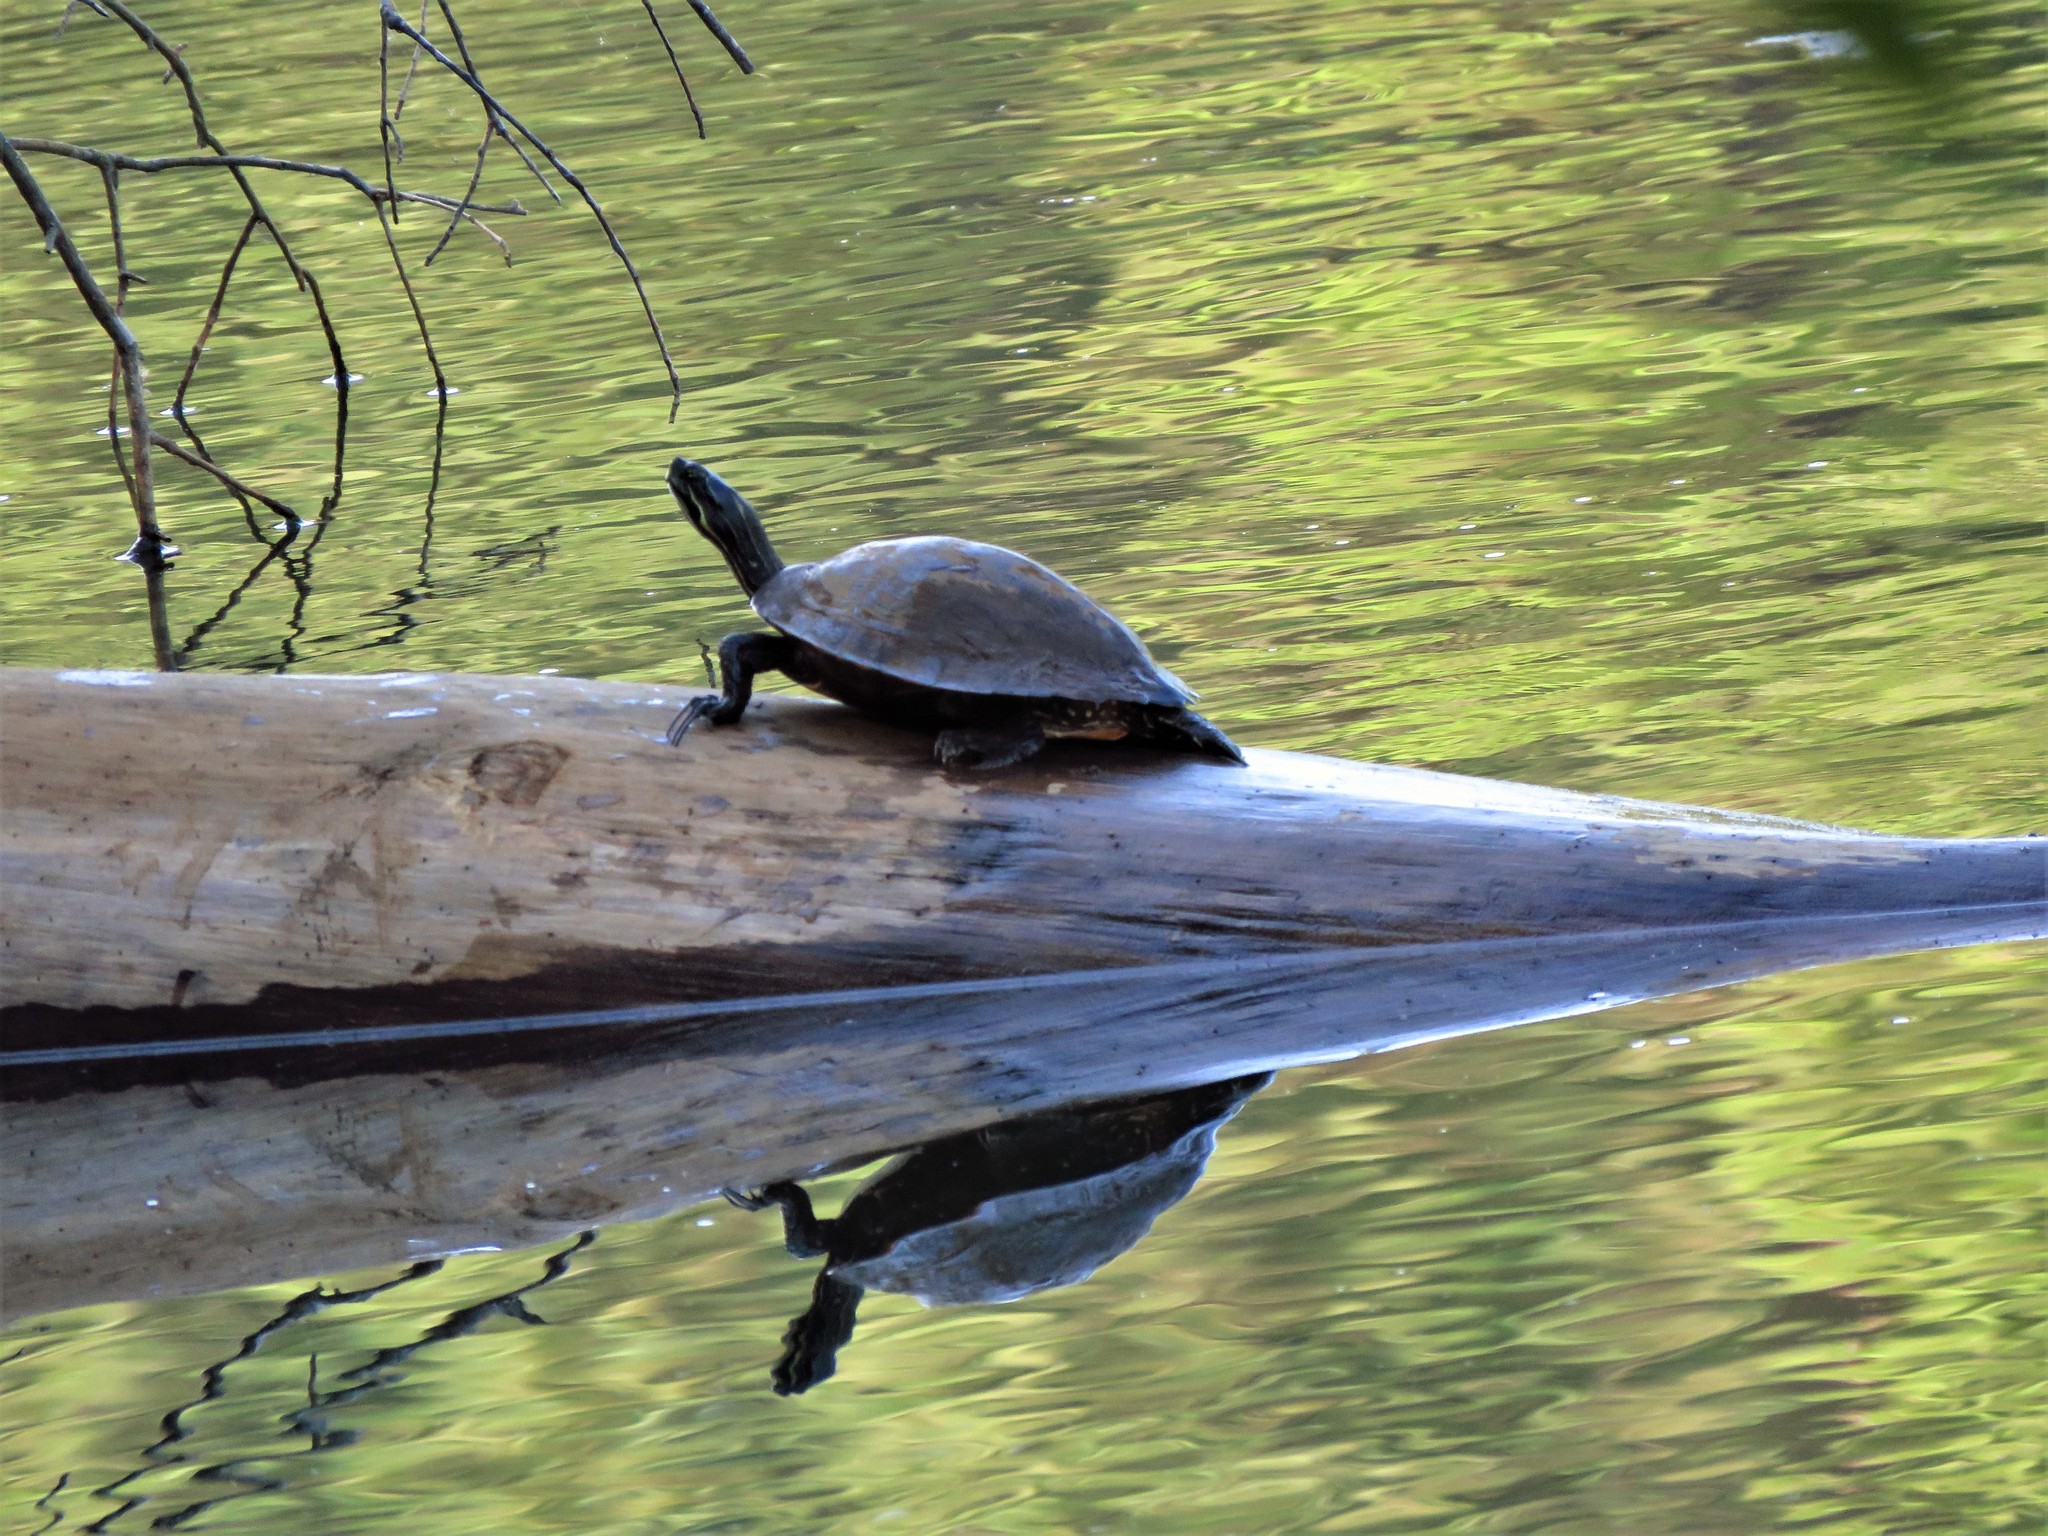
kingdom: Animalia
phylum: Chordata
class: Testudines
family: Emydidae
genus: Pseudemys
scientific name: Pseudemys concinna
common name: Eastern river cooter
